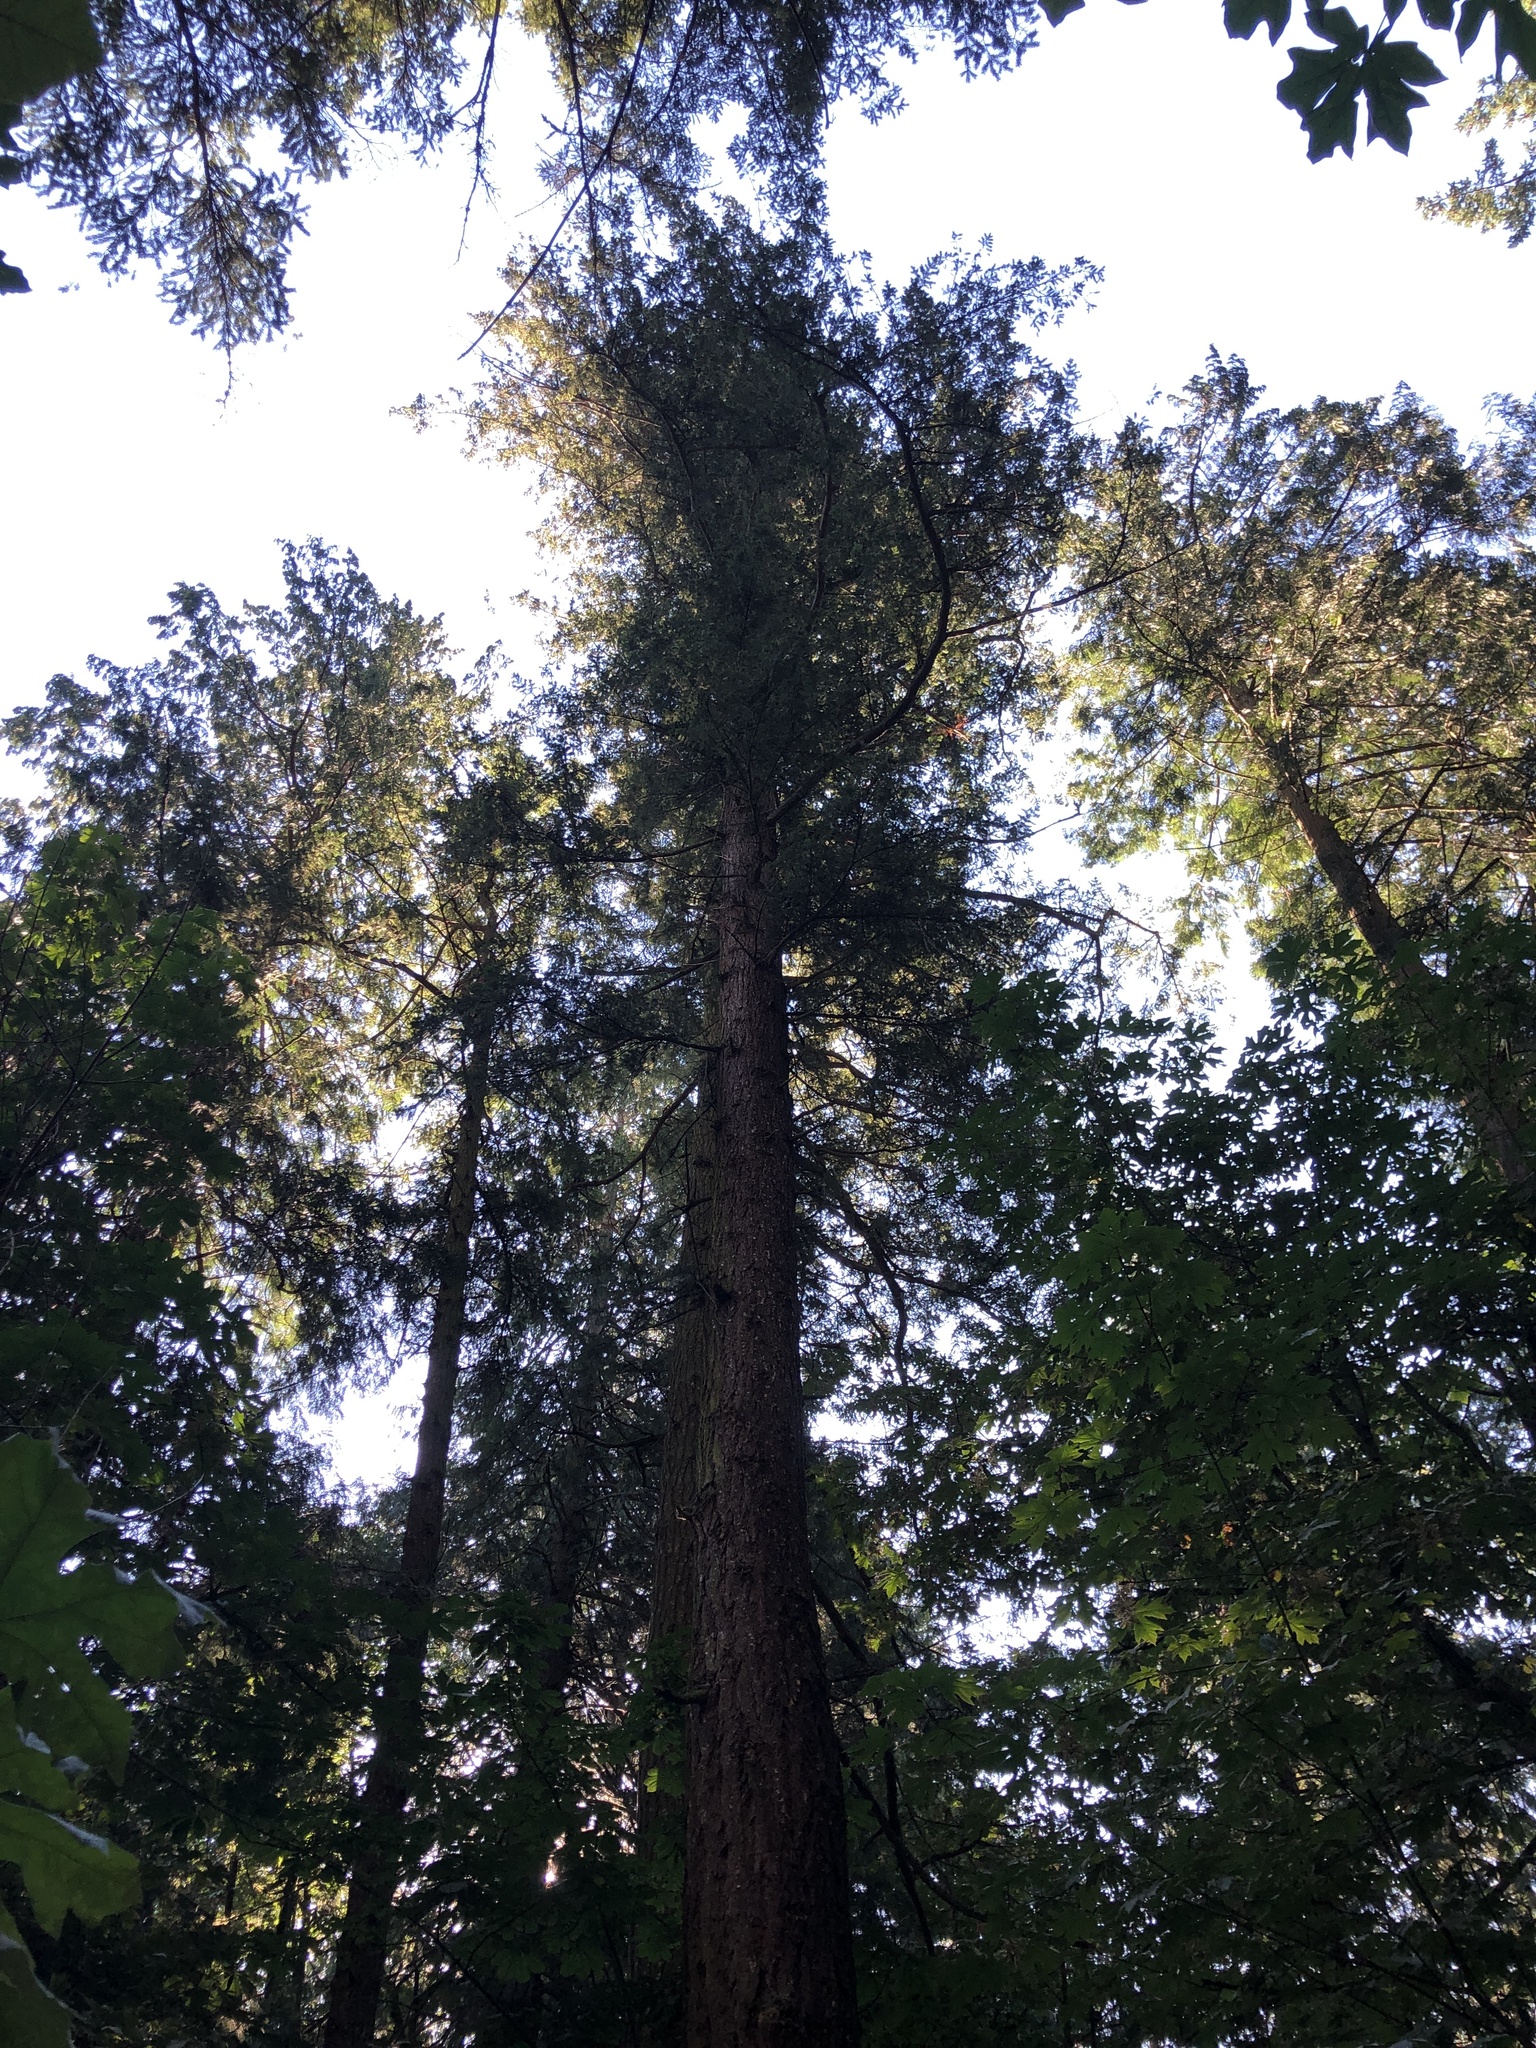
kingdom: Plantae
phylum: Tracheophyta
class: Pinopsida
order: Pinales
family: Pinaceae
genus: Pseudotsuga
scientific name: Pseudotsuga menziesii
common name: Douglas fir
